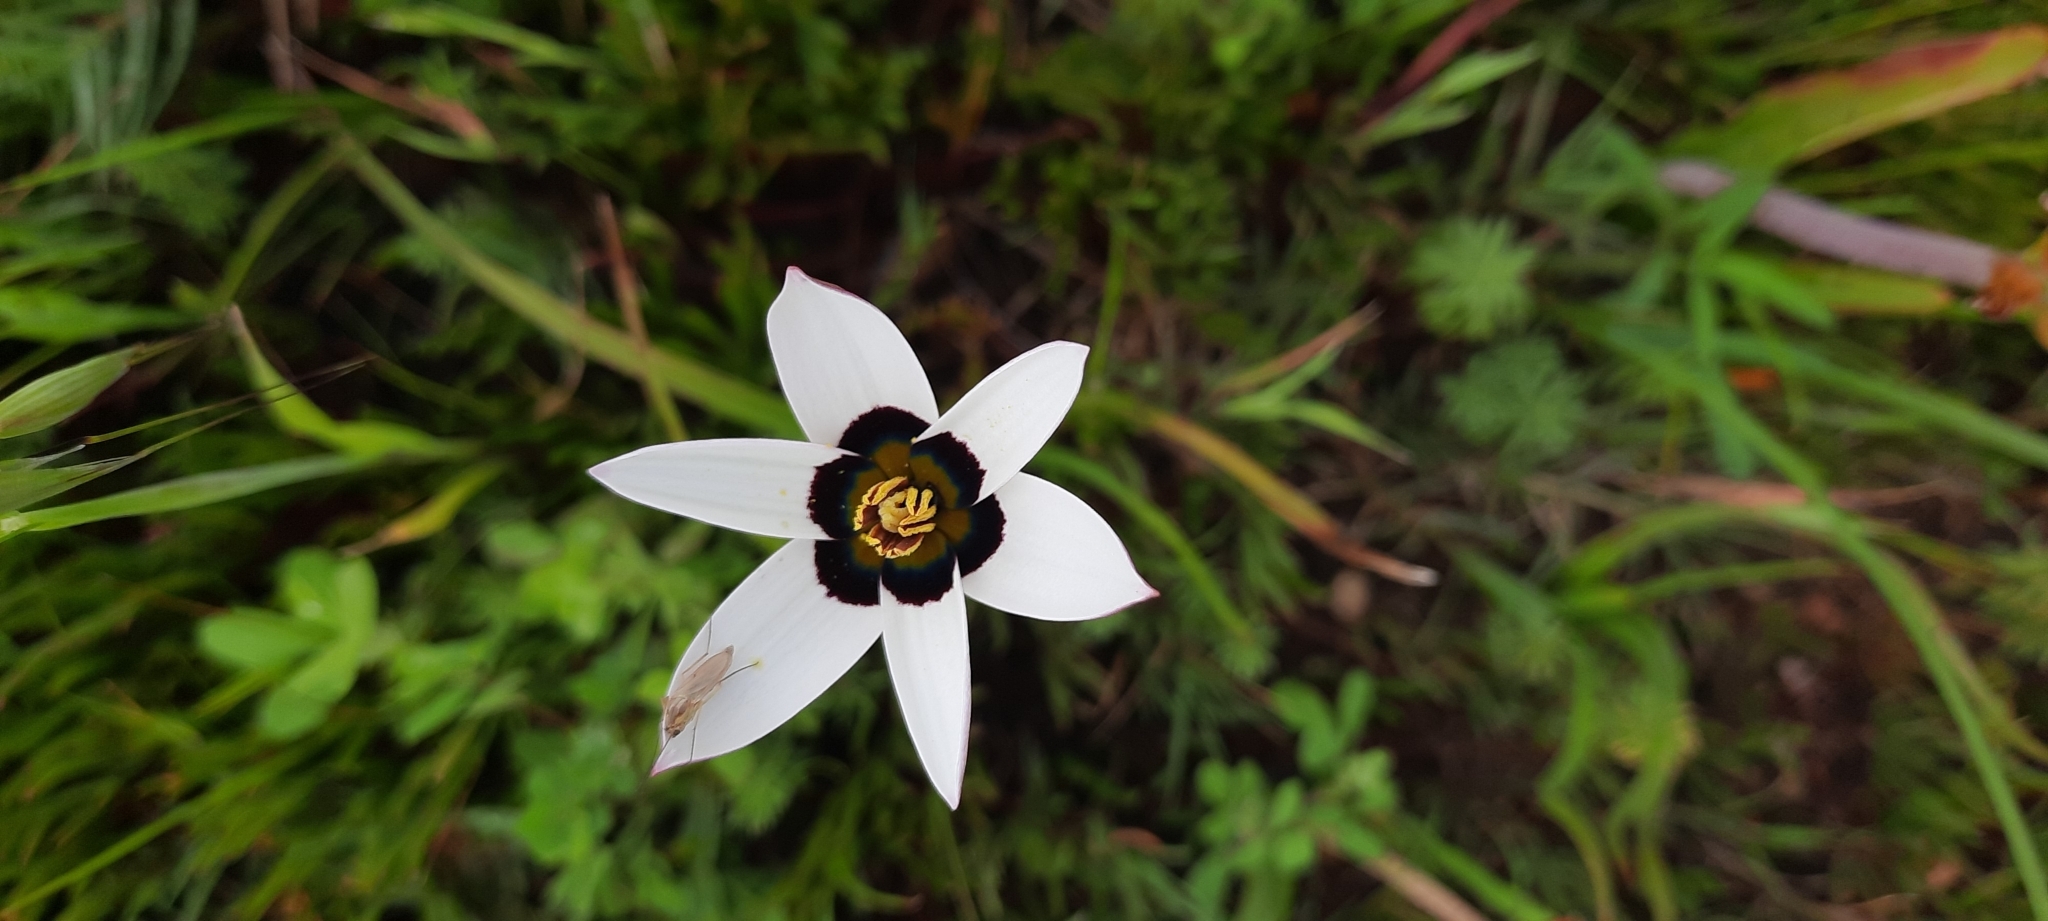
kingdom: Plantae
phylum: Tracheophyta
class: Liliopsida
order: Asparagales
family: Hypoxidaceae
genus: Pauridia
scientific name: Pauridia capensis
